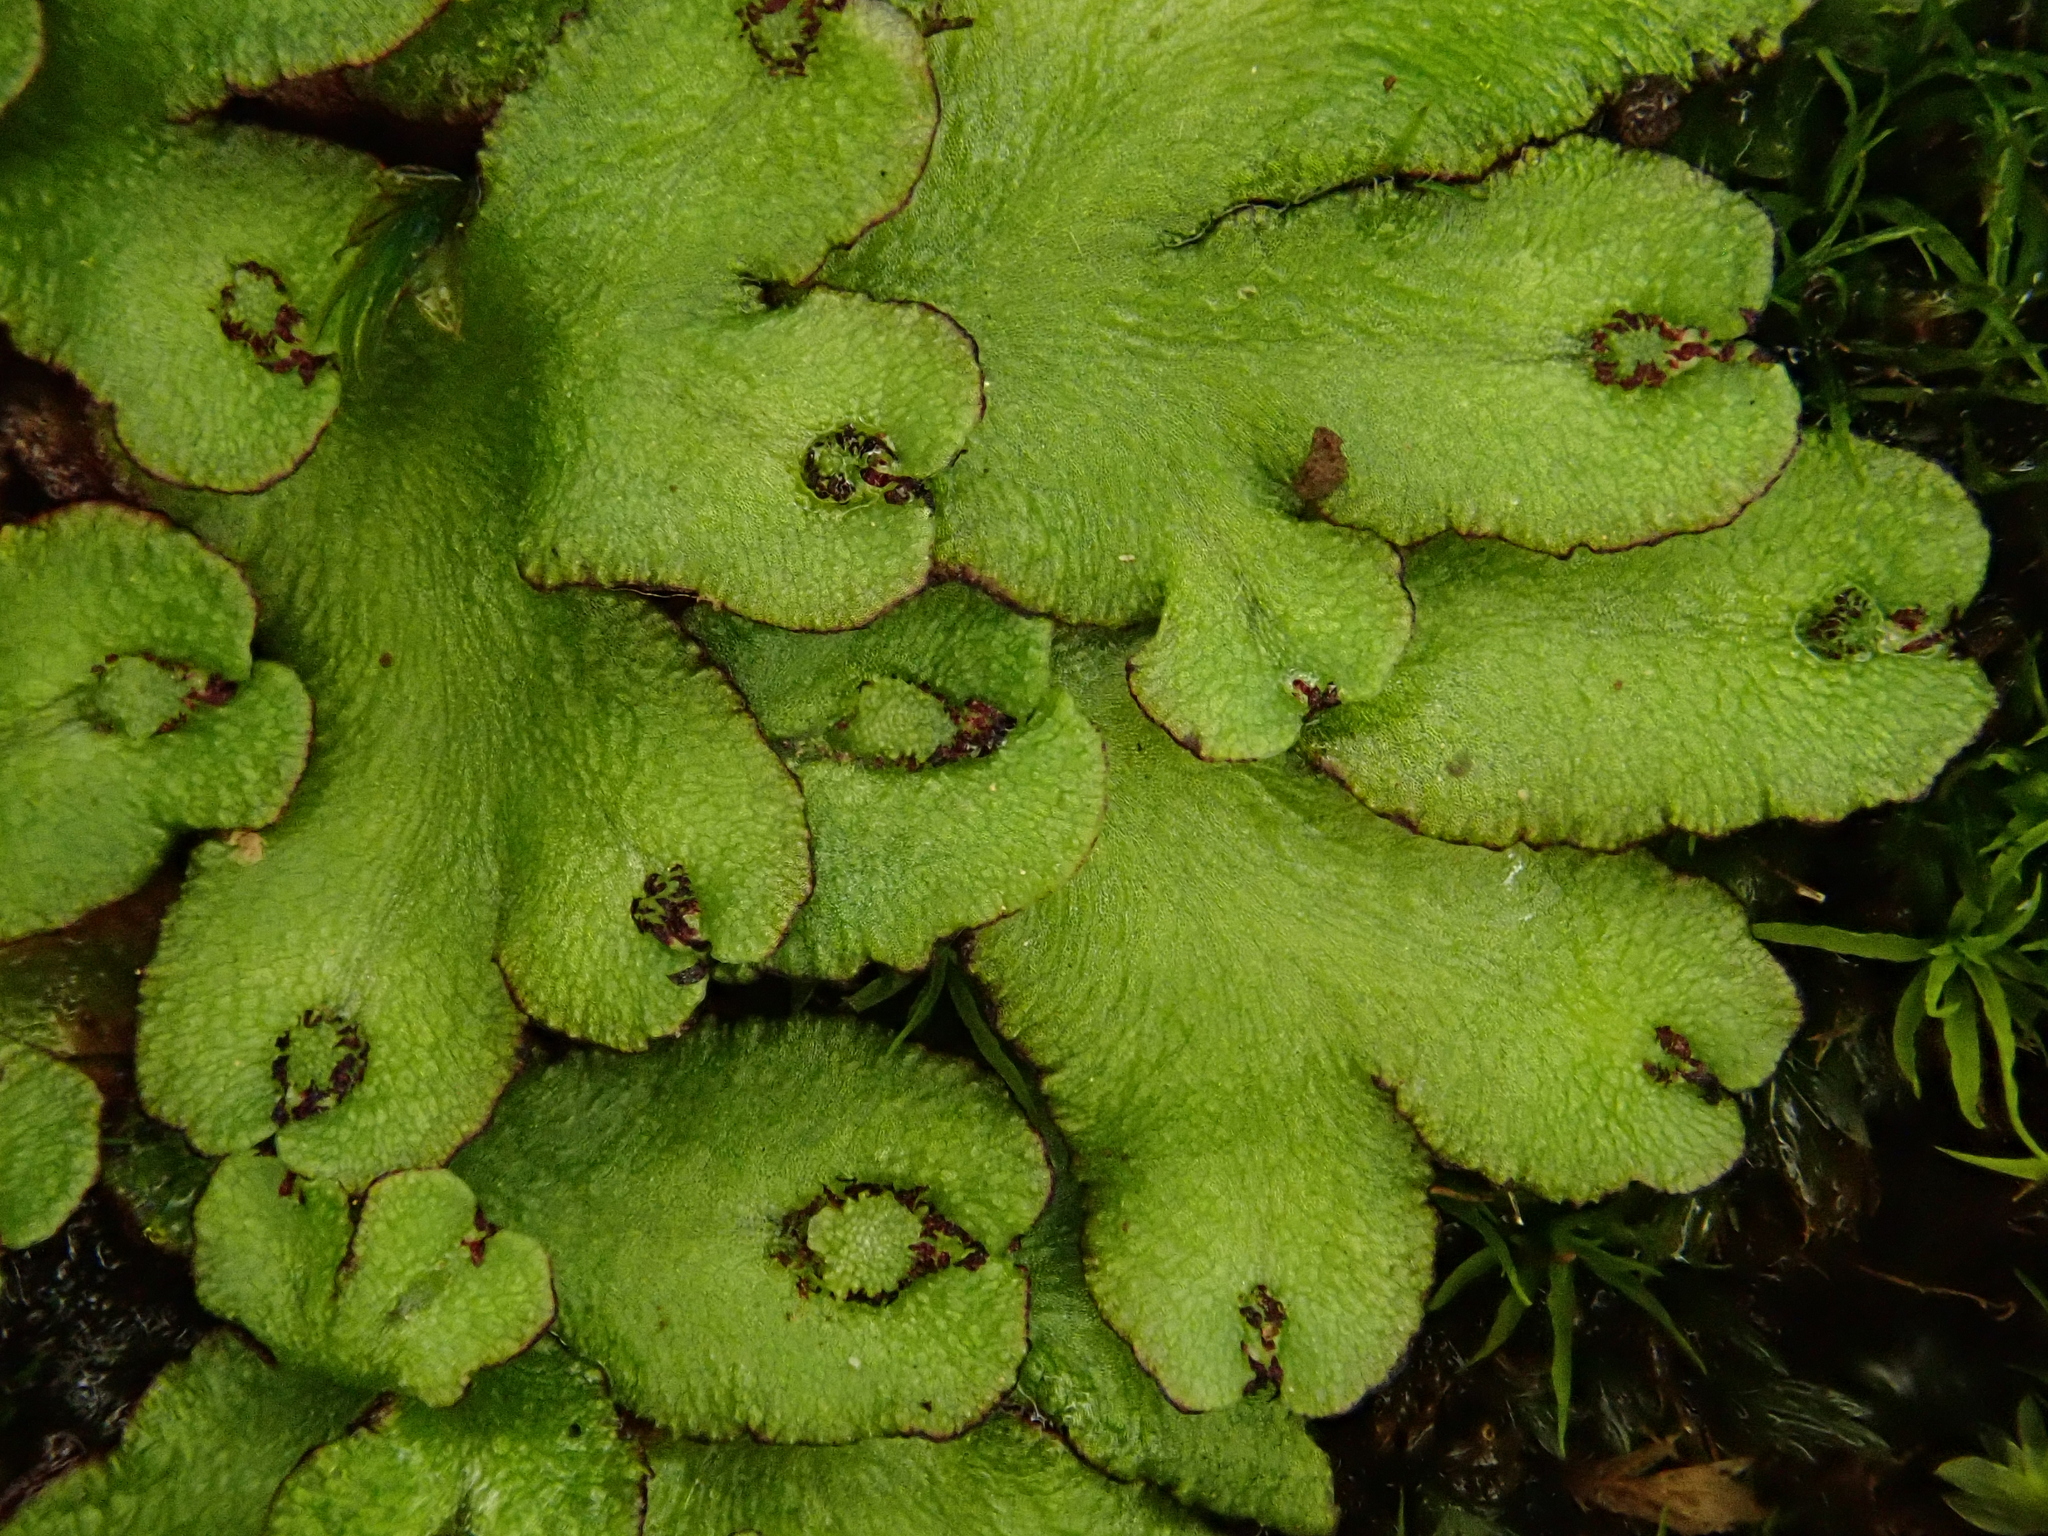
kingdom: Plantae
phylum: Marchantiophyta
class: Marchantiopsida
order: Marchantiales
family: Aytoniaceae
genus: Asterella
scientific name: Asterella africana
